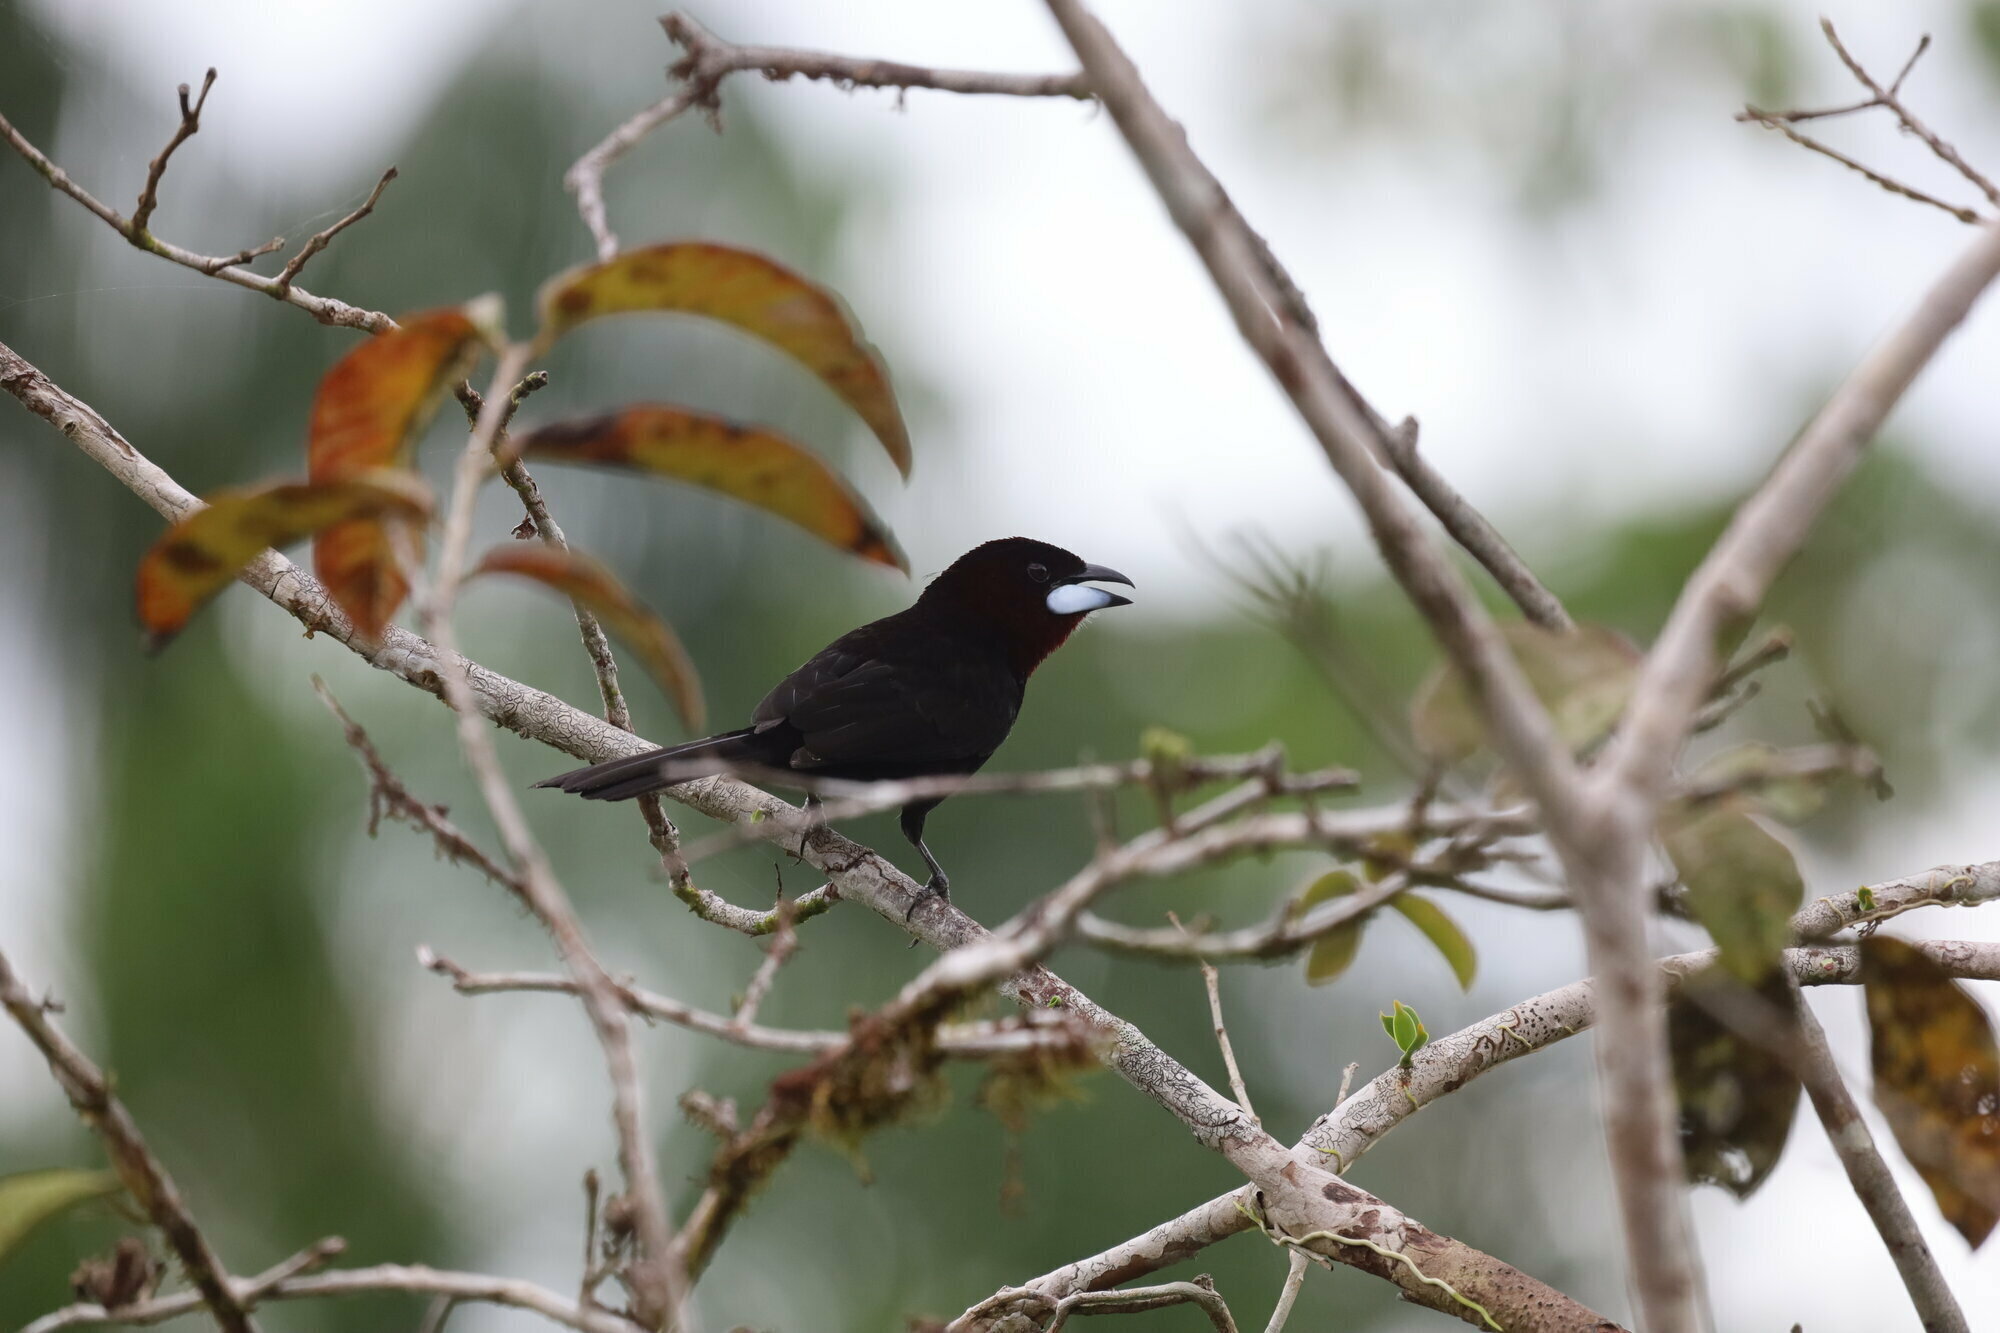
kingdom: Animalia
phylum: Chordata
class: Aves
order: Passeriformes
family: Thraupidae
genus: Ramphocelus
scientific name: Ramphocelus carbo
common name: Silver-beaked tanager
